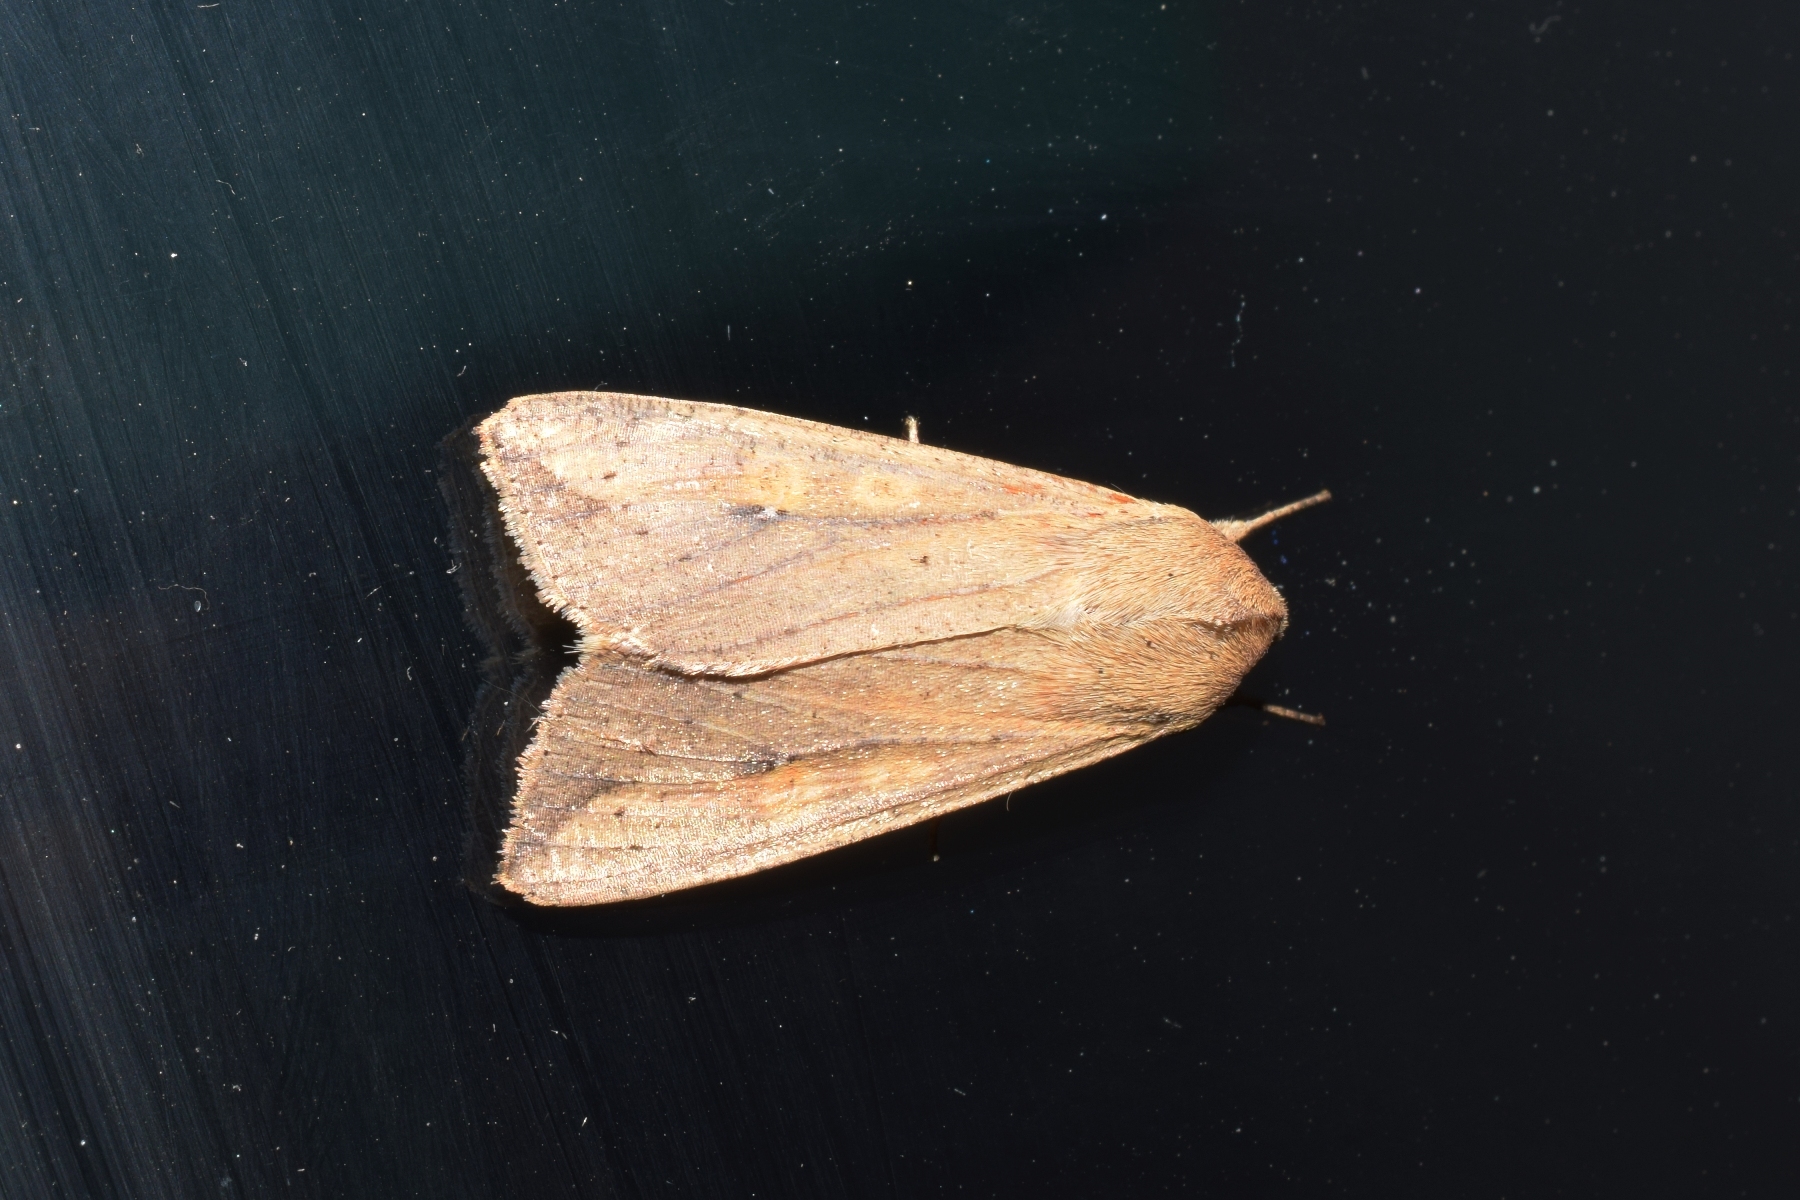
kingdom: Animalia
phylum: Arthropoda
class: Insecta
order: Lepidoptera
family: Noctuidae
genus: Mythimna
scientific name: Mythimna separata
